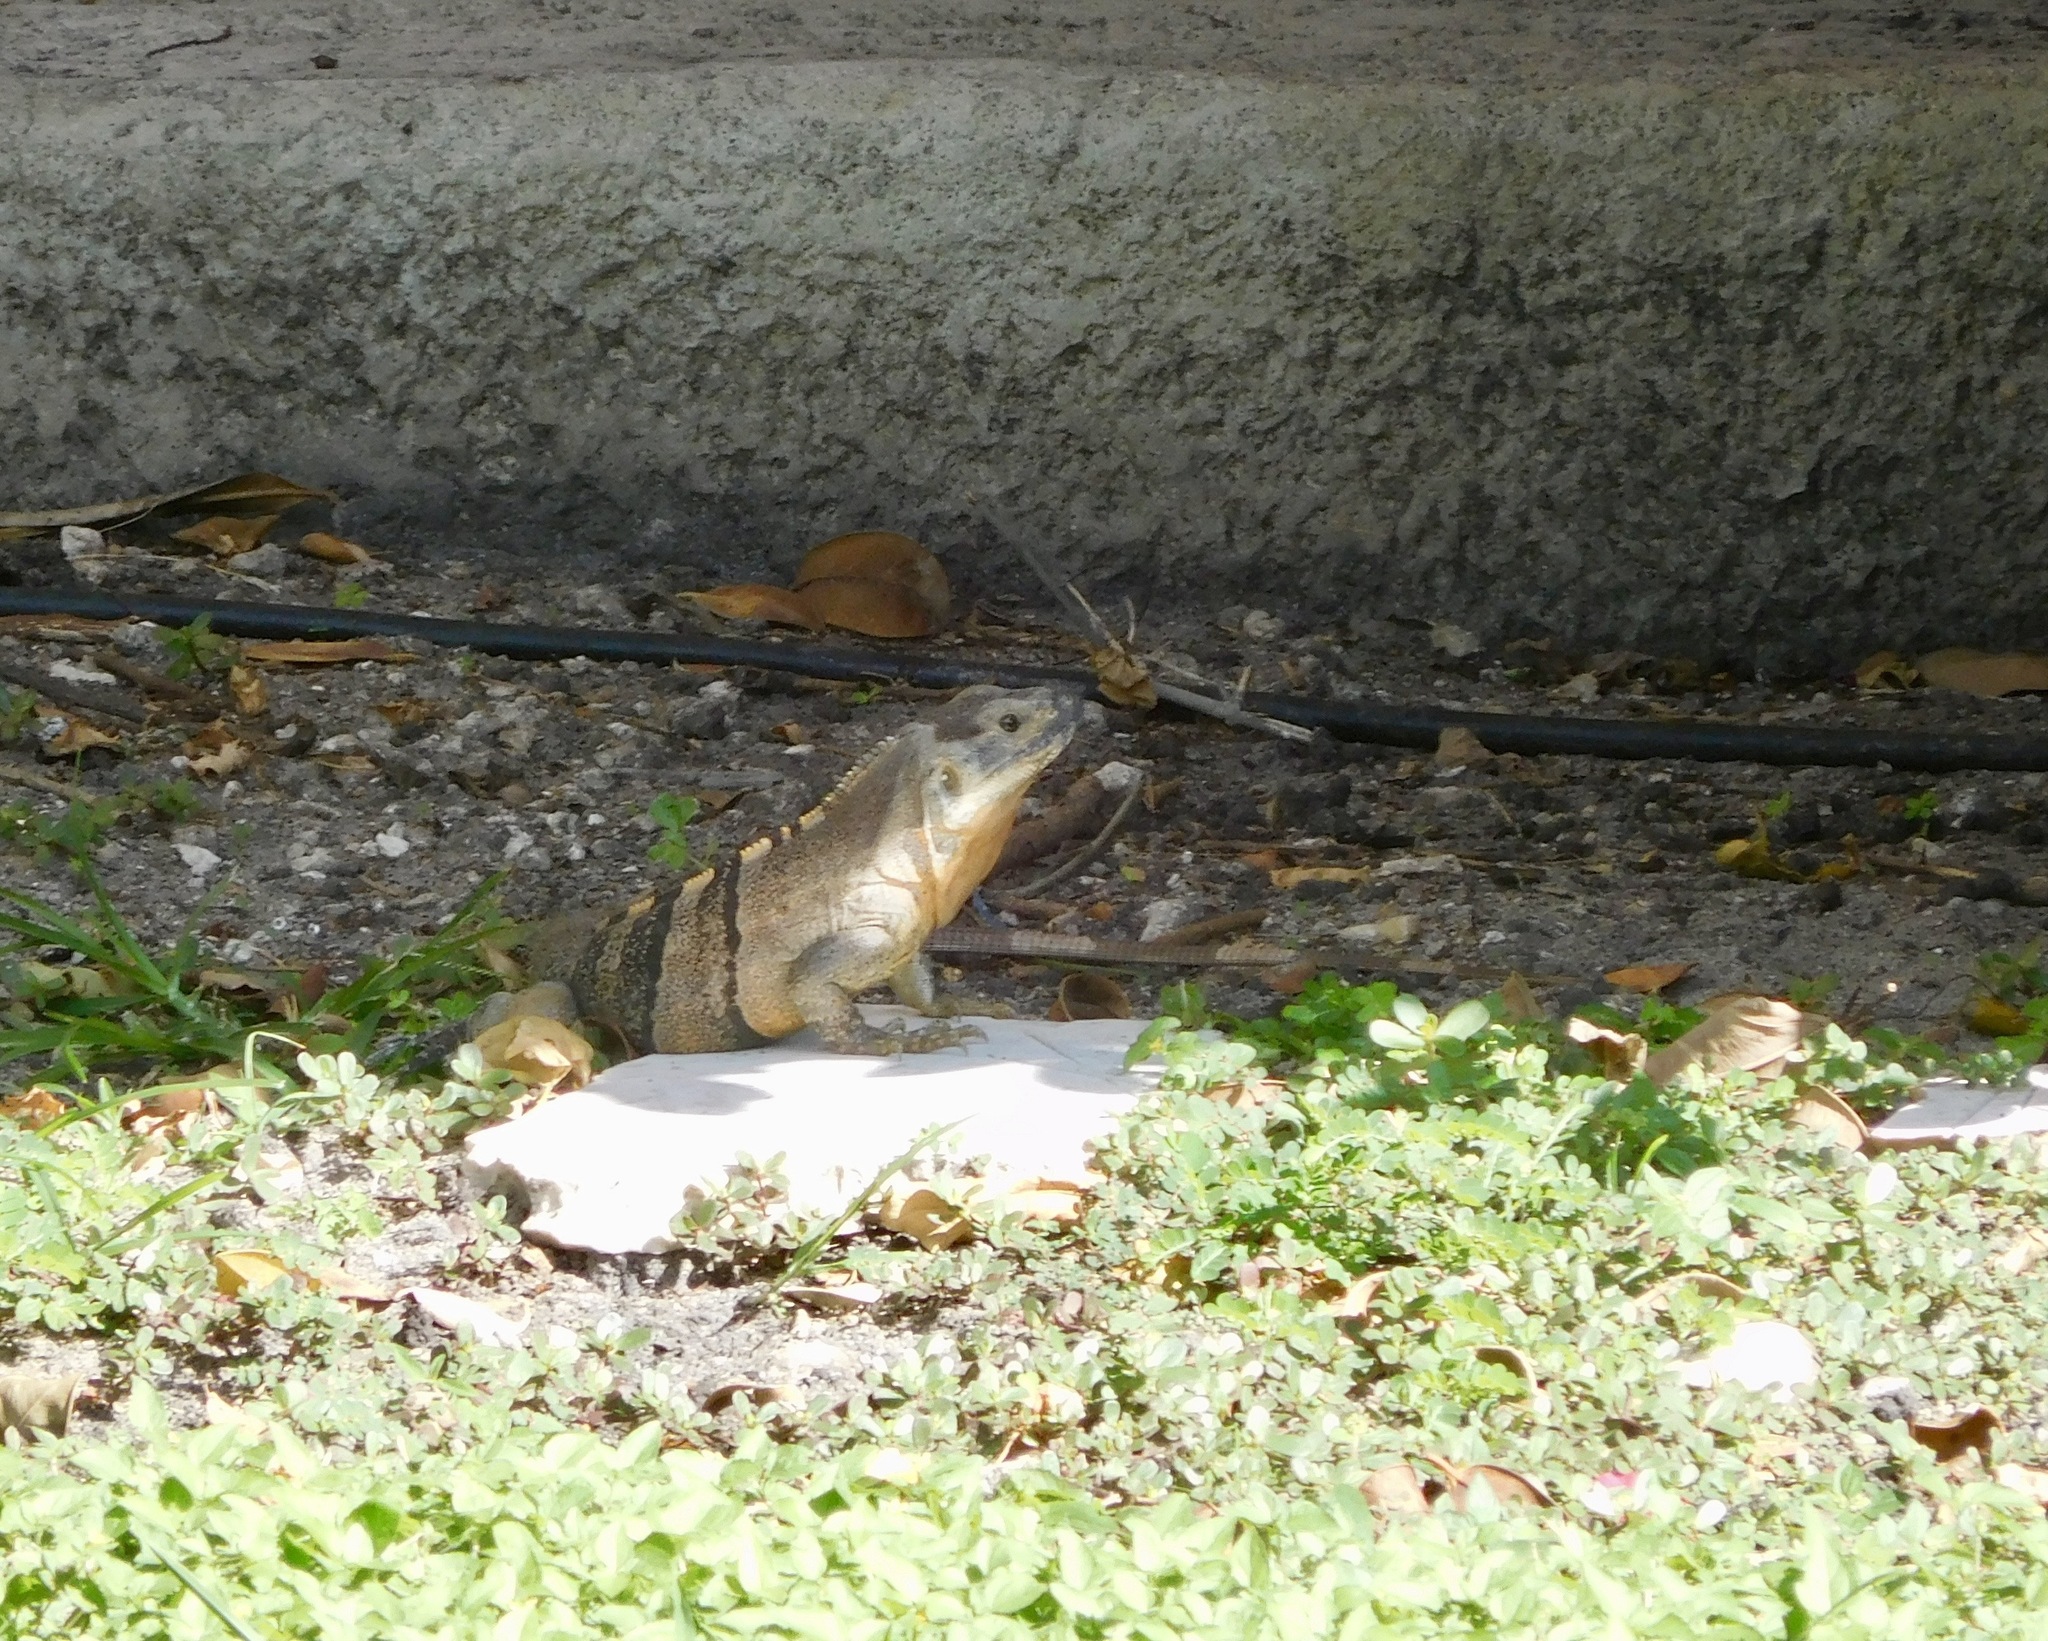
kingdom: Animalia
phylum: Chordata
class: Squamata
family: Iguanidae
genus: Ctenosaura
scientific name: Ctenosaura similis
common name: Black spiny-tailed iguana
